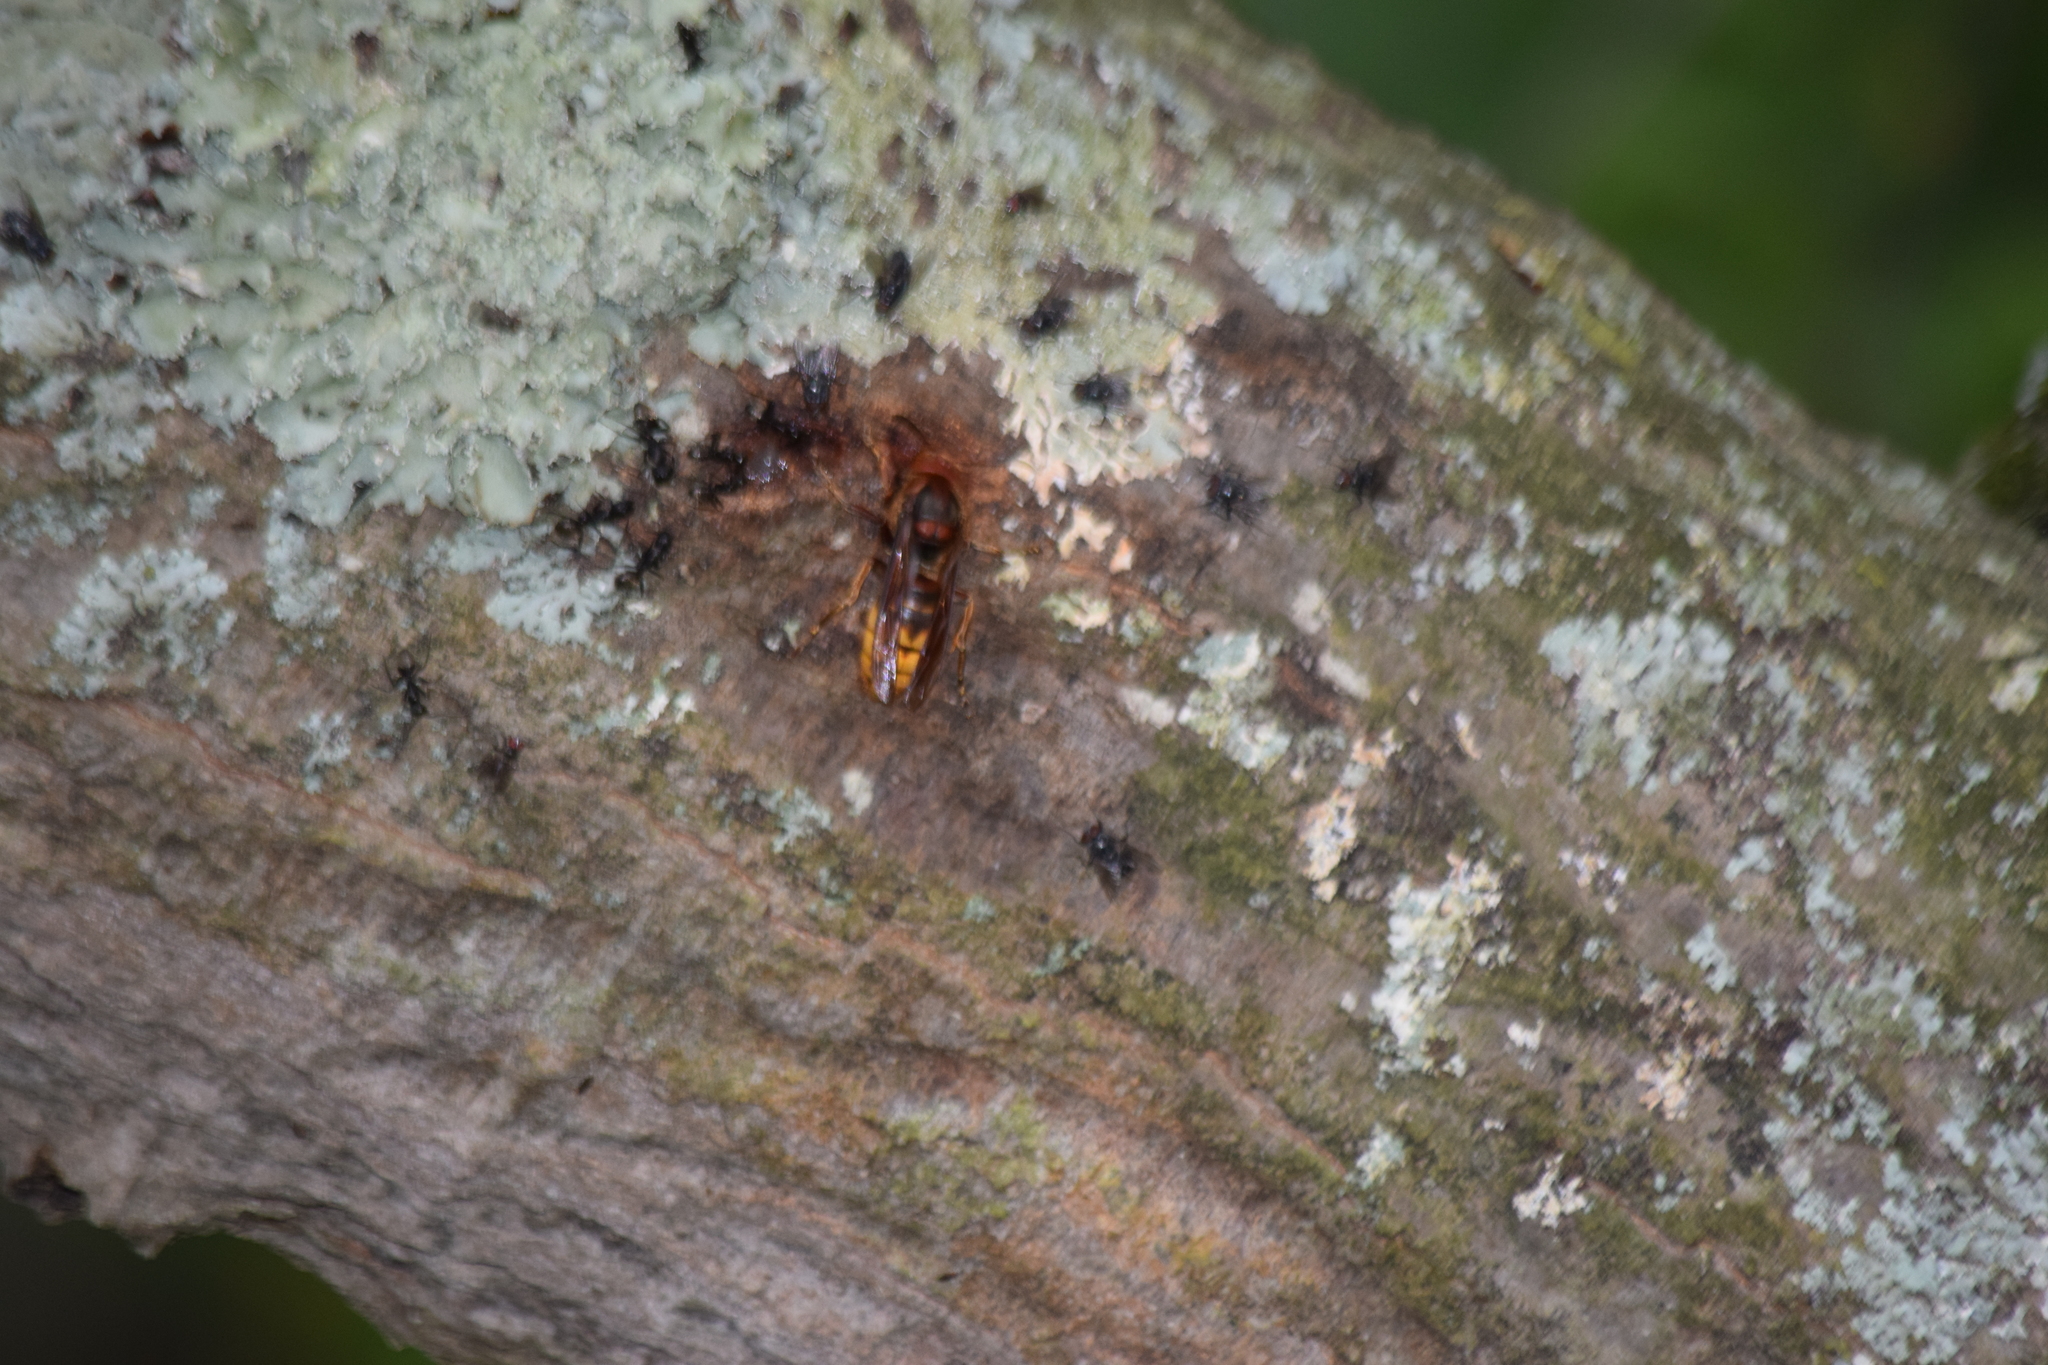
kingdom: Animalia
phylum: Arthropoda
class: Insecta
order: Hymenoptera
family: Vespidae
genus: Vespa
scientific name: Vespa crabro
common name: Hornet
